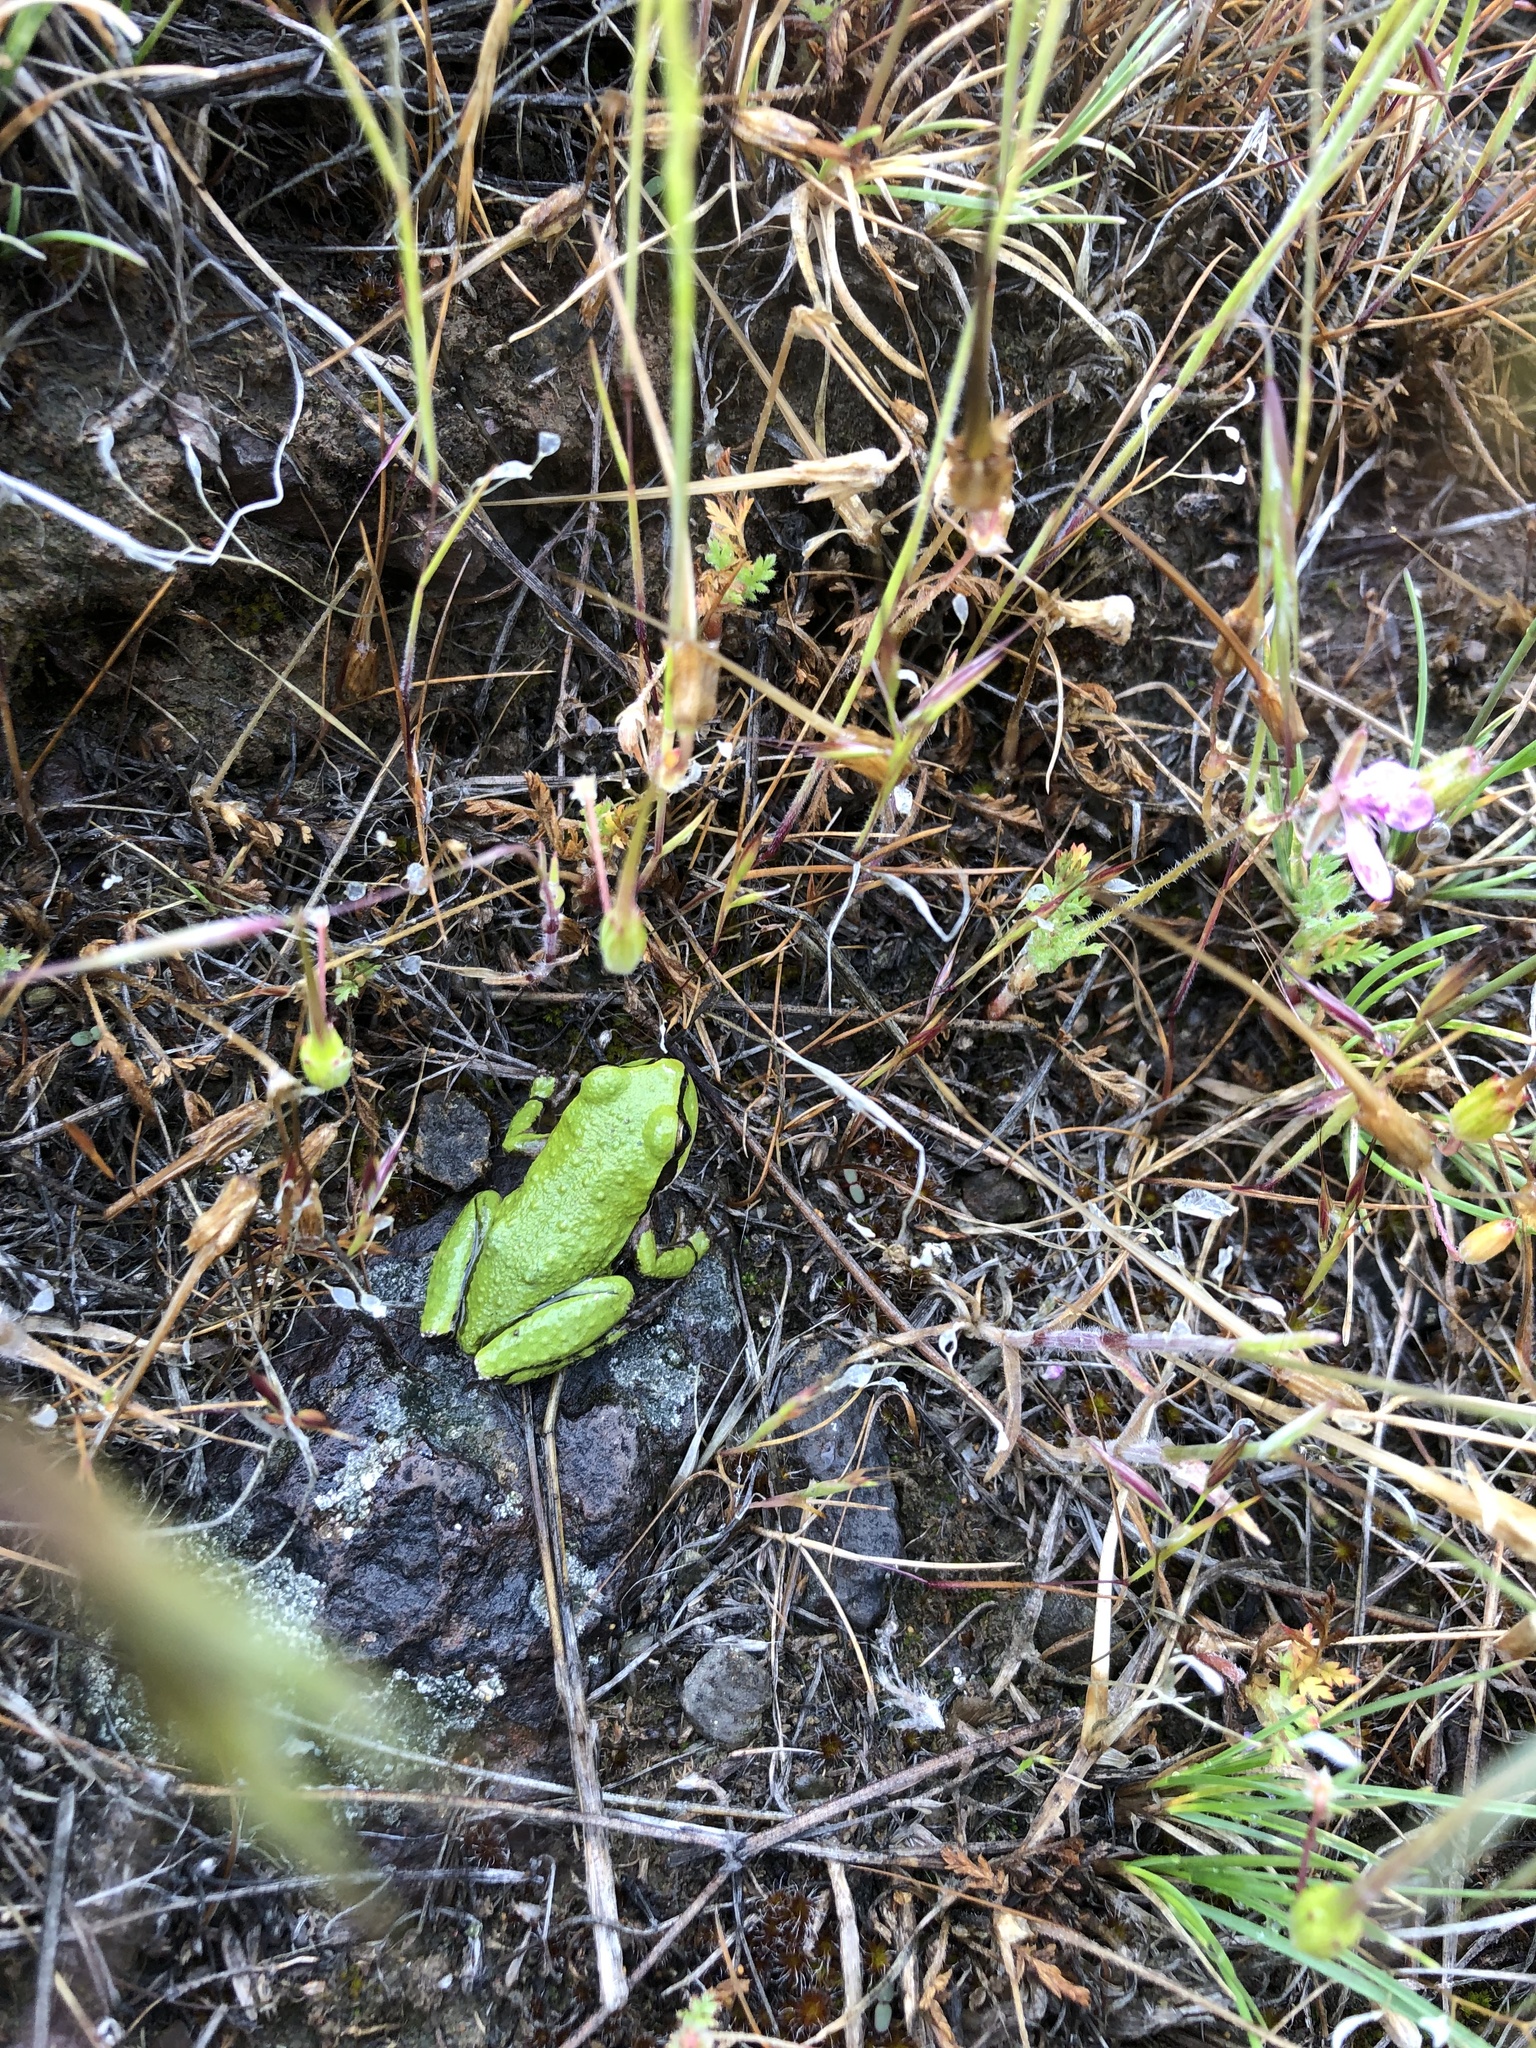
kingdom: Animalia
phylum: Chordata
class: Amphibia
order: Anura
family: Hylidae
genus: Pseudacris
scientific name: Pseudacris regilla
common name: Pacific chorus frog
